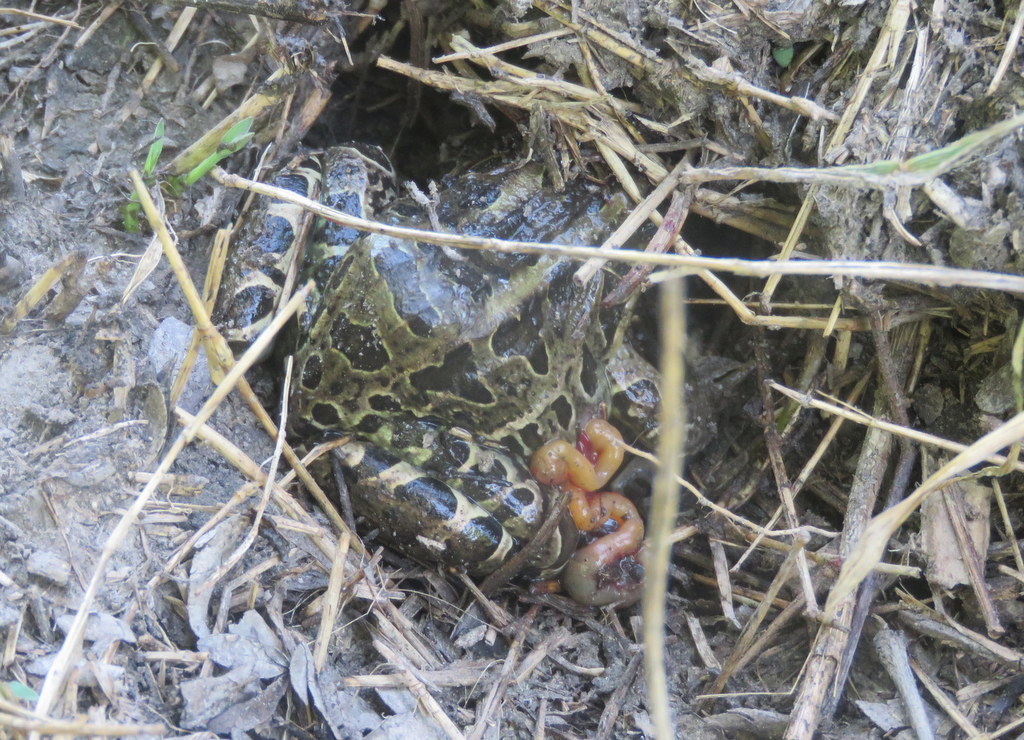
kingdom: Animalia
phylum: Chordata
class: Amphibia
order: Anura
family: Leptodactylidae
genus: Leptodactylus
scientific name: Leptodactylus luctator
